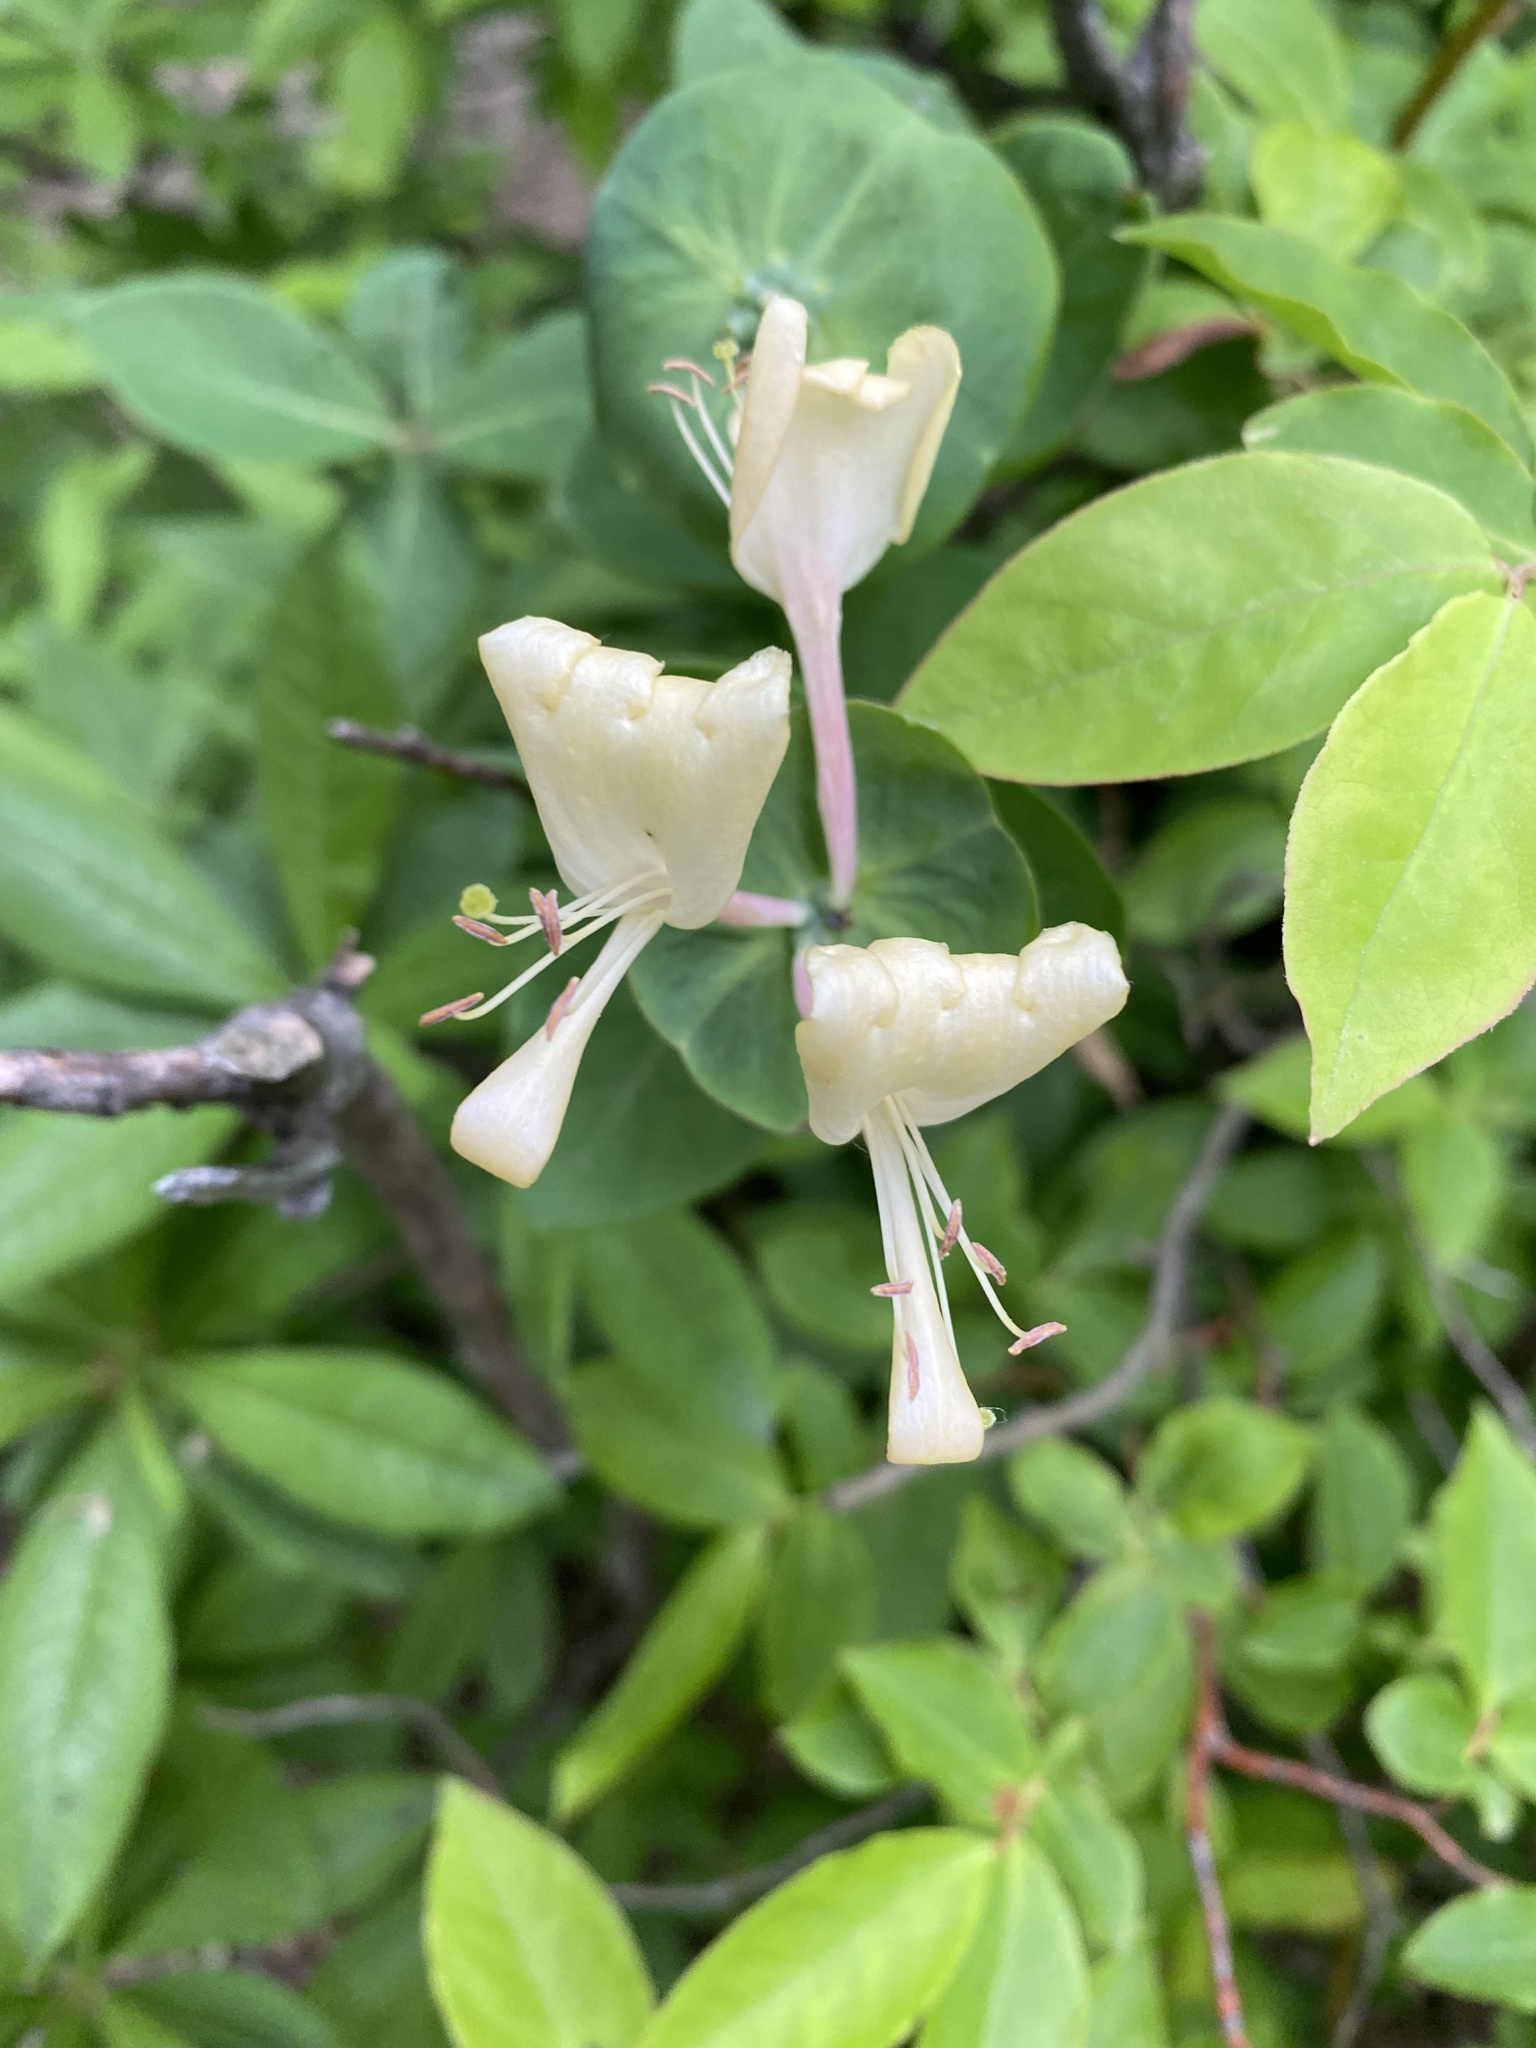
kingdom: Plantae
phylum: Tracheophyta
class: Magnoliopsida
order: Dipsacales
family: Caprifoliaceae
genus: Lonicera
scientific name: Lonicera caprifolium
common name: Perfoliate honeysuckle
